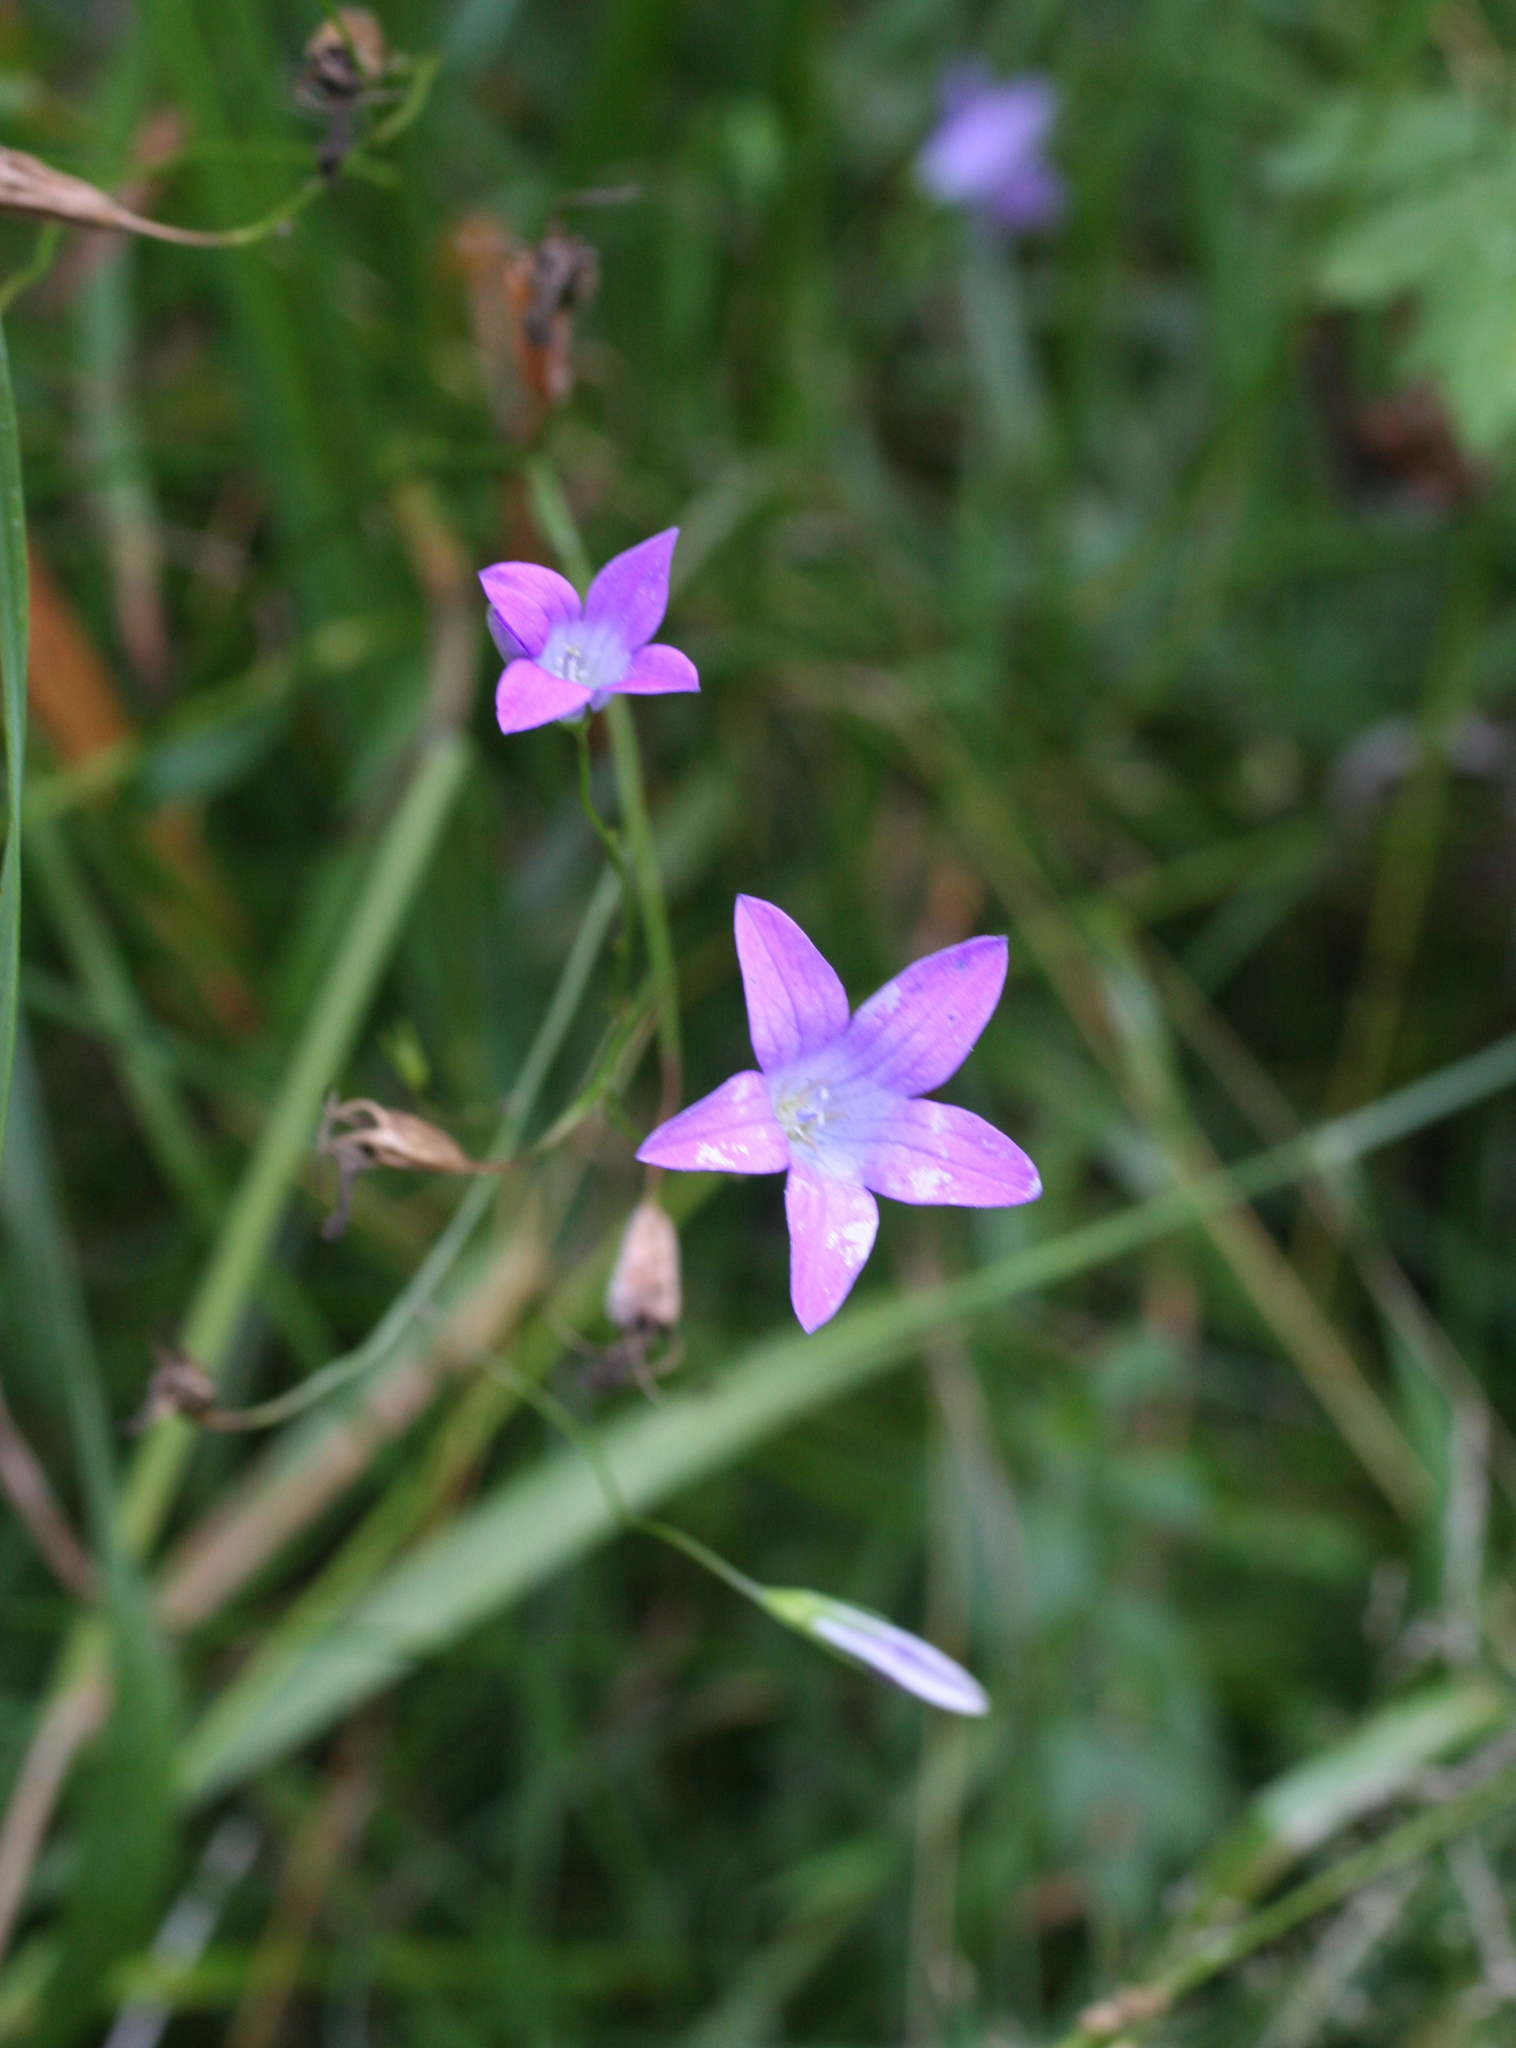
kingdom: Plantae
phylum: Tracheophyta
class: Magnoliopsida
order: Asterales
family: Campanulaceae
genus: Campanula
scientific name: Campanula patula
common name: Spreading bellflower
